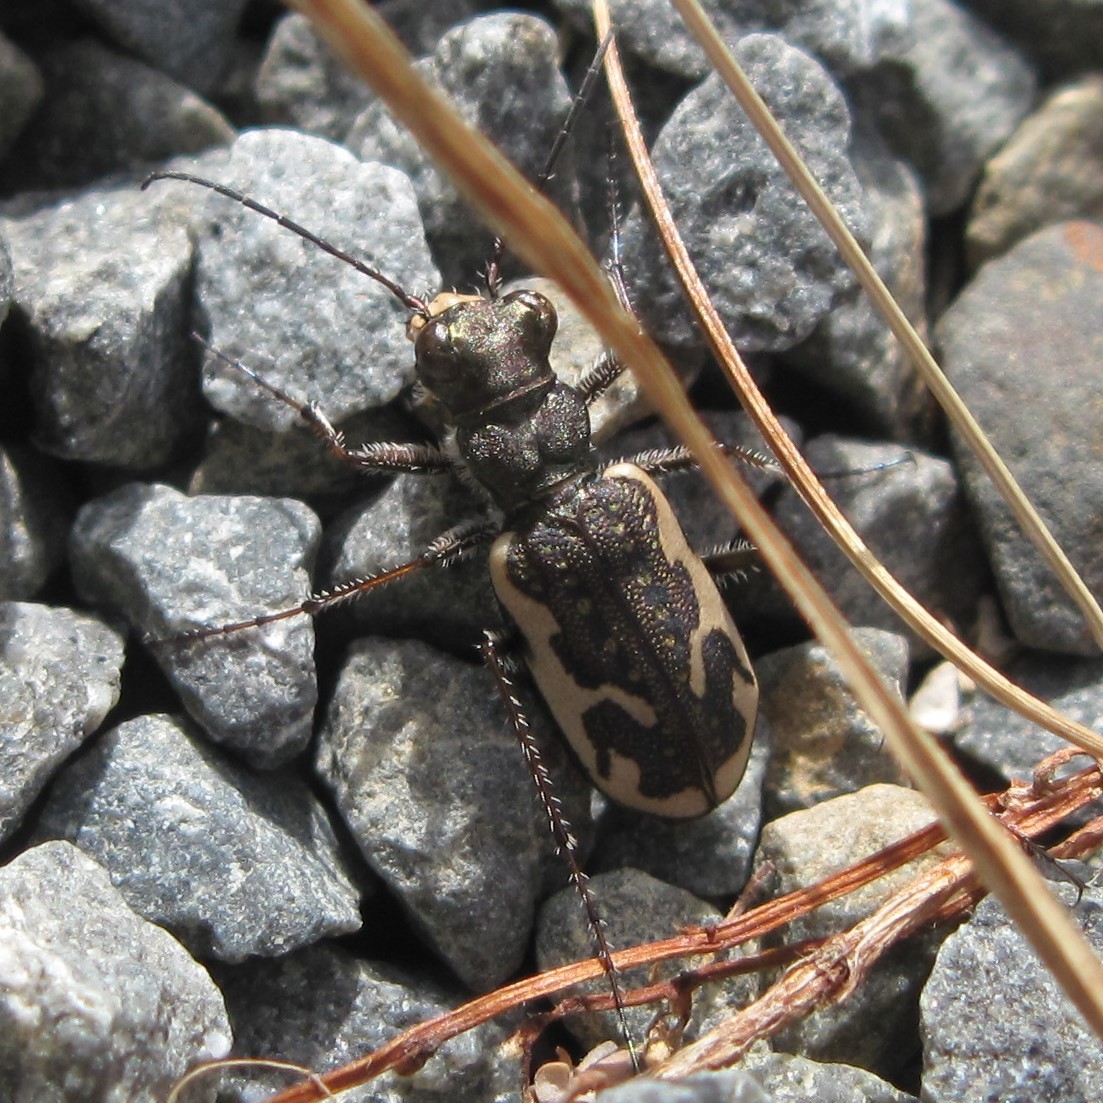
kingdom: Animalia
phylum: Arthropoda
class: Insecta
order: Coleoptera
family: Carabidae
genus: Neocicindela
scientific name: Neocicindela tuberculata
